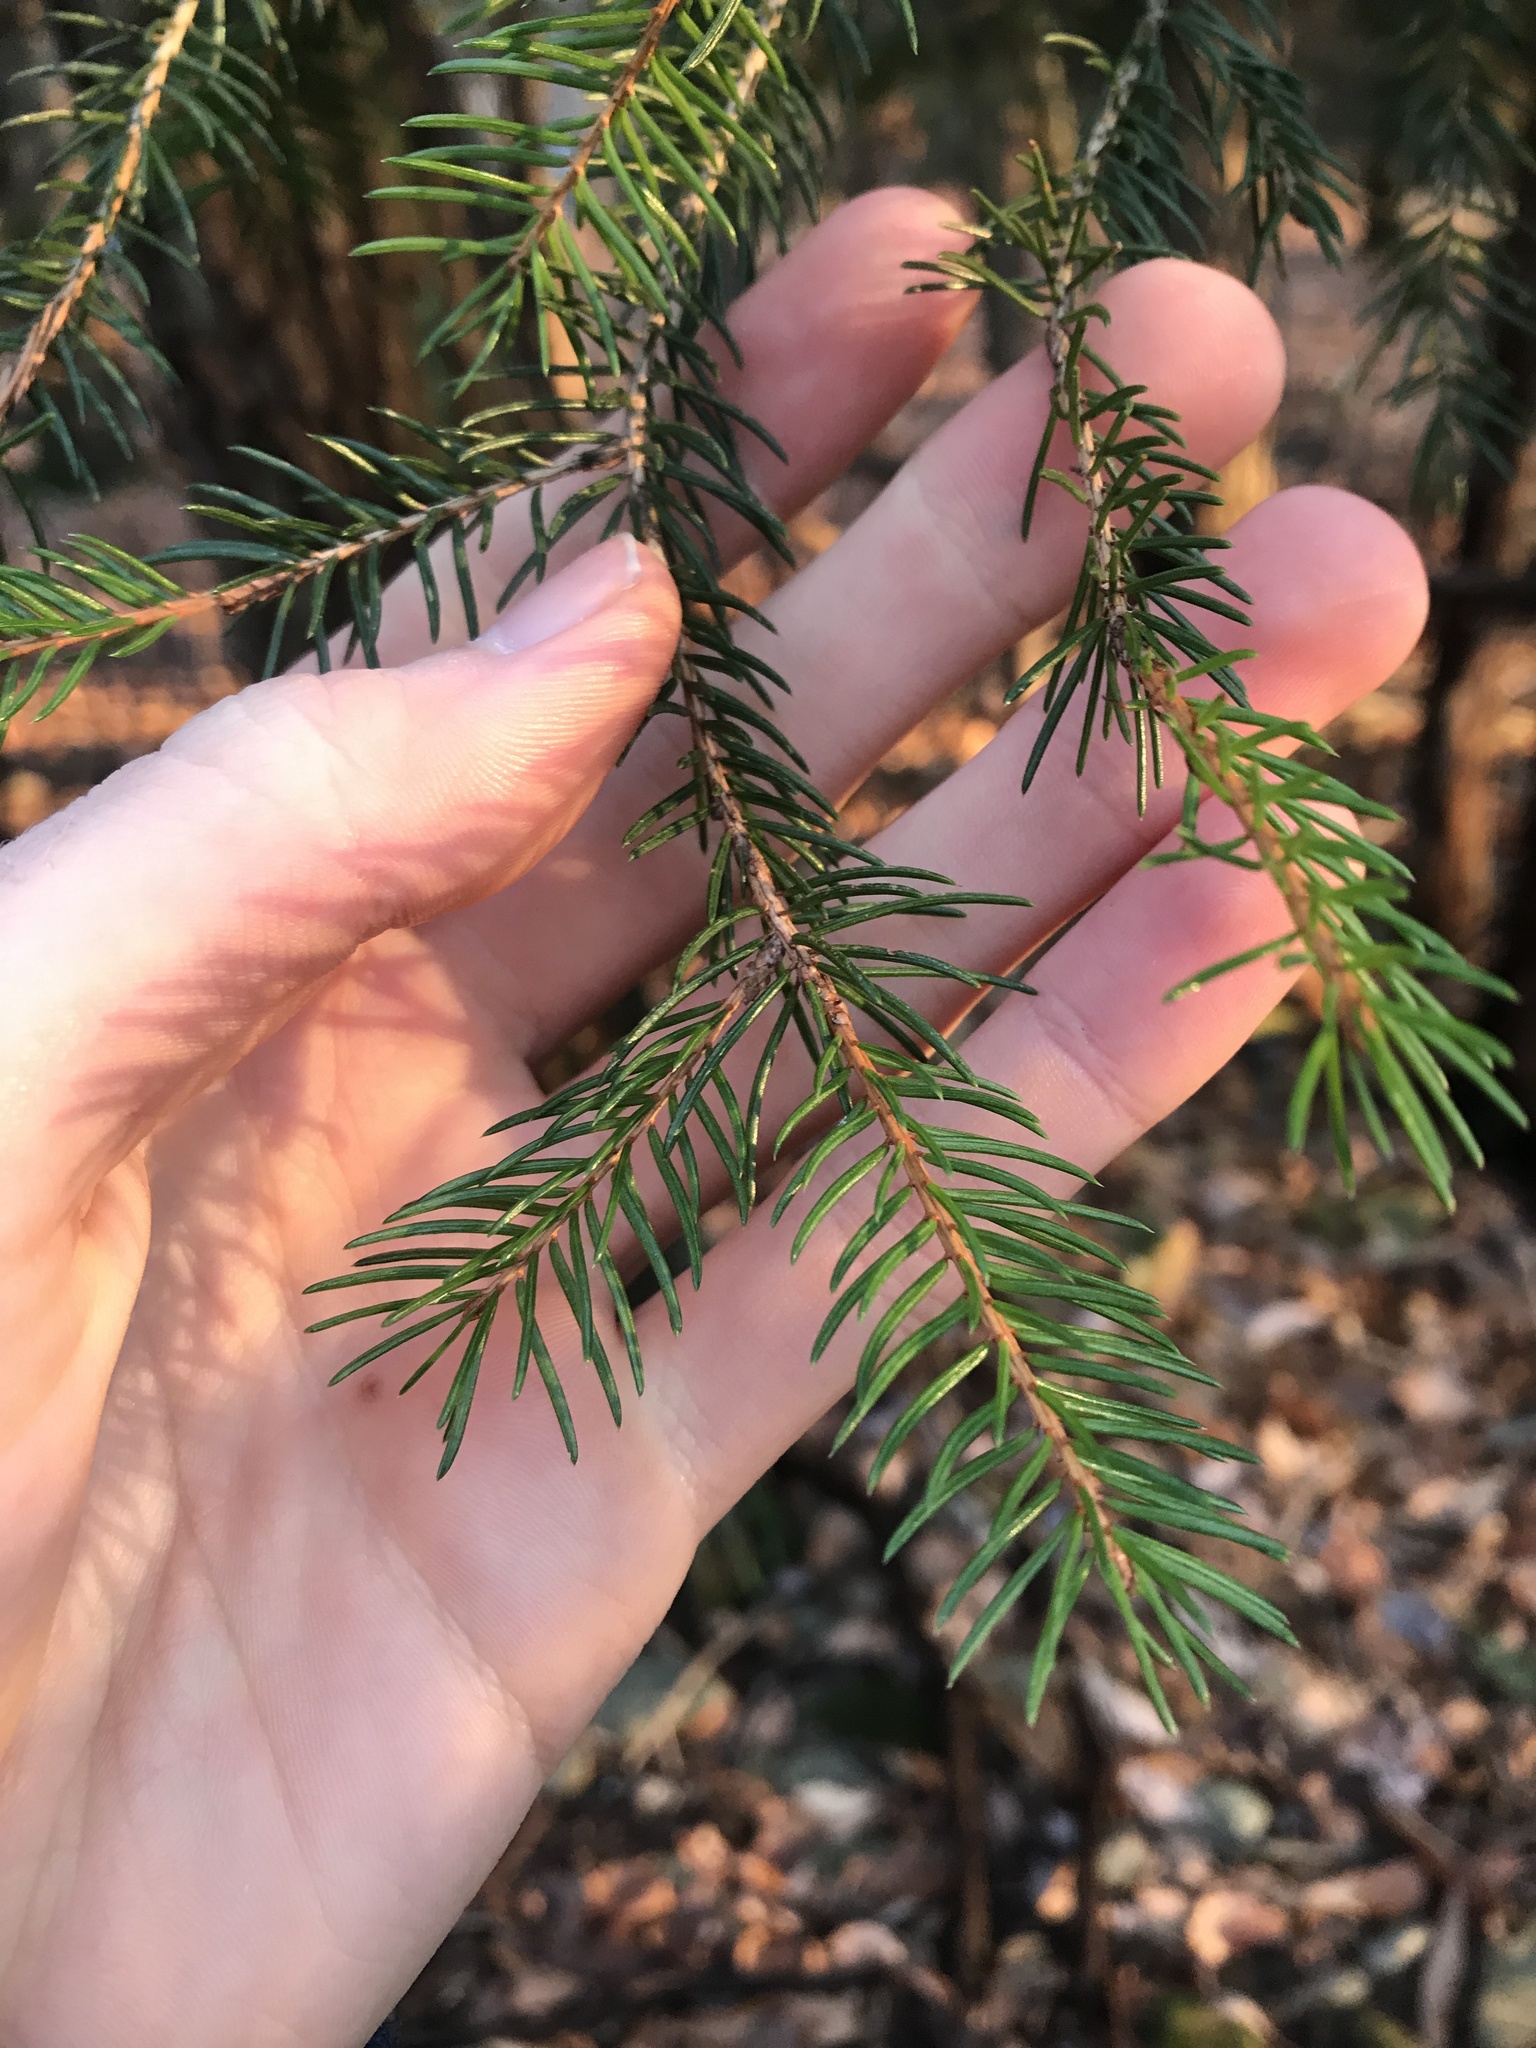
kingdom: Plantae
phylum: Tracheophyta
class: Pinopsida
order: Pinales
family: Pinaceae
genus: Picea
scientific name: Picea abies
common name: Norway spruce
